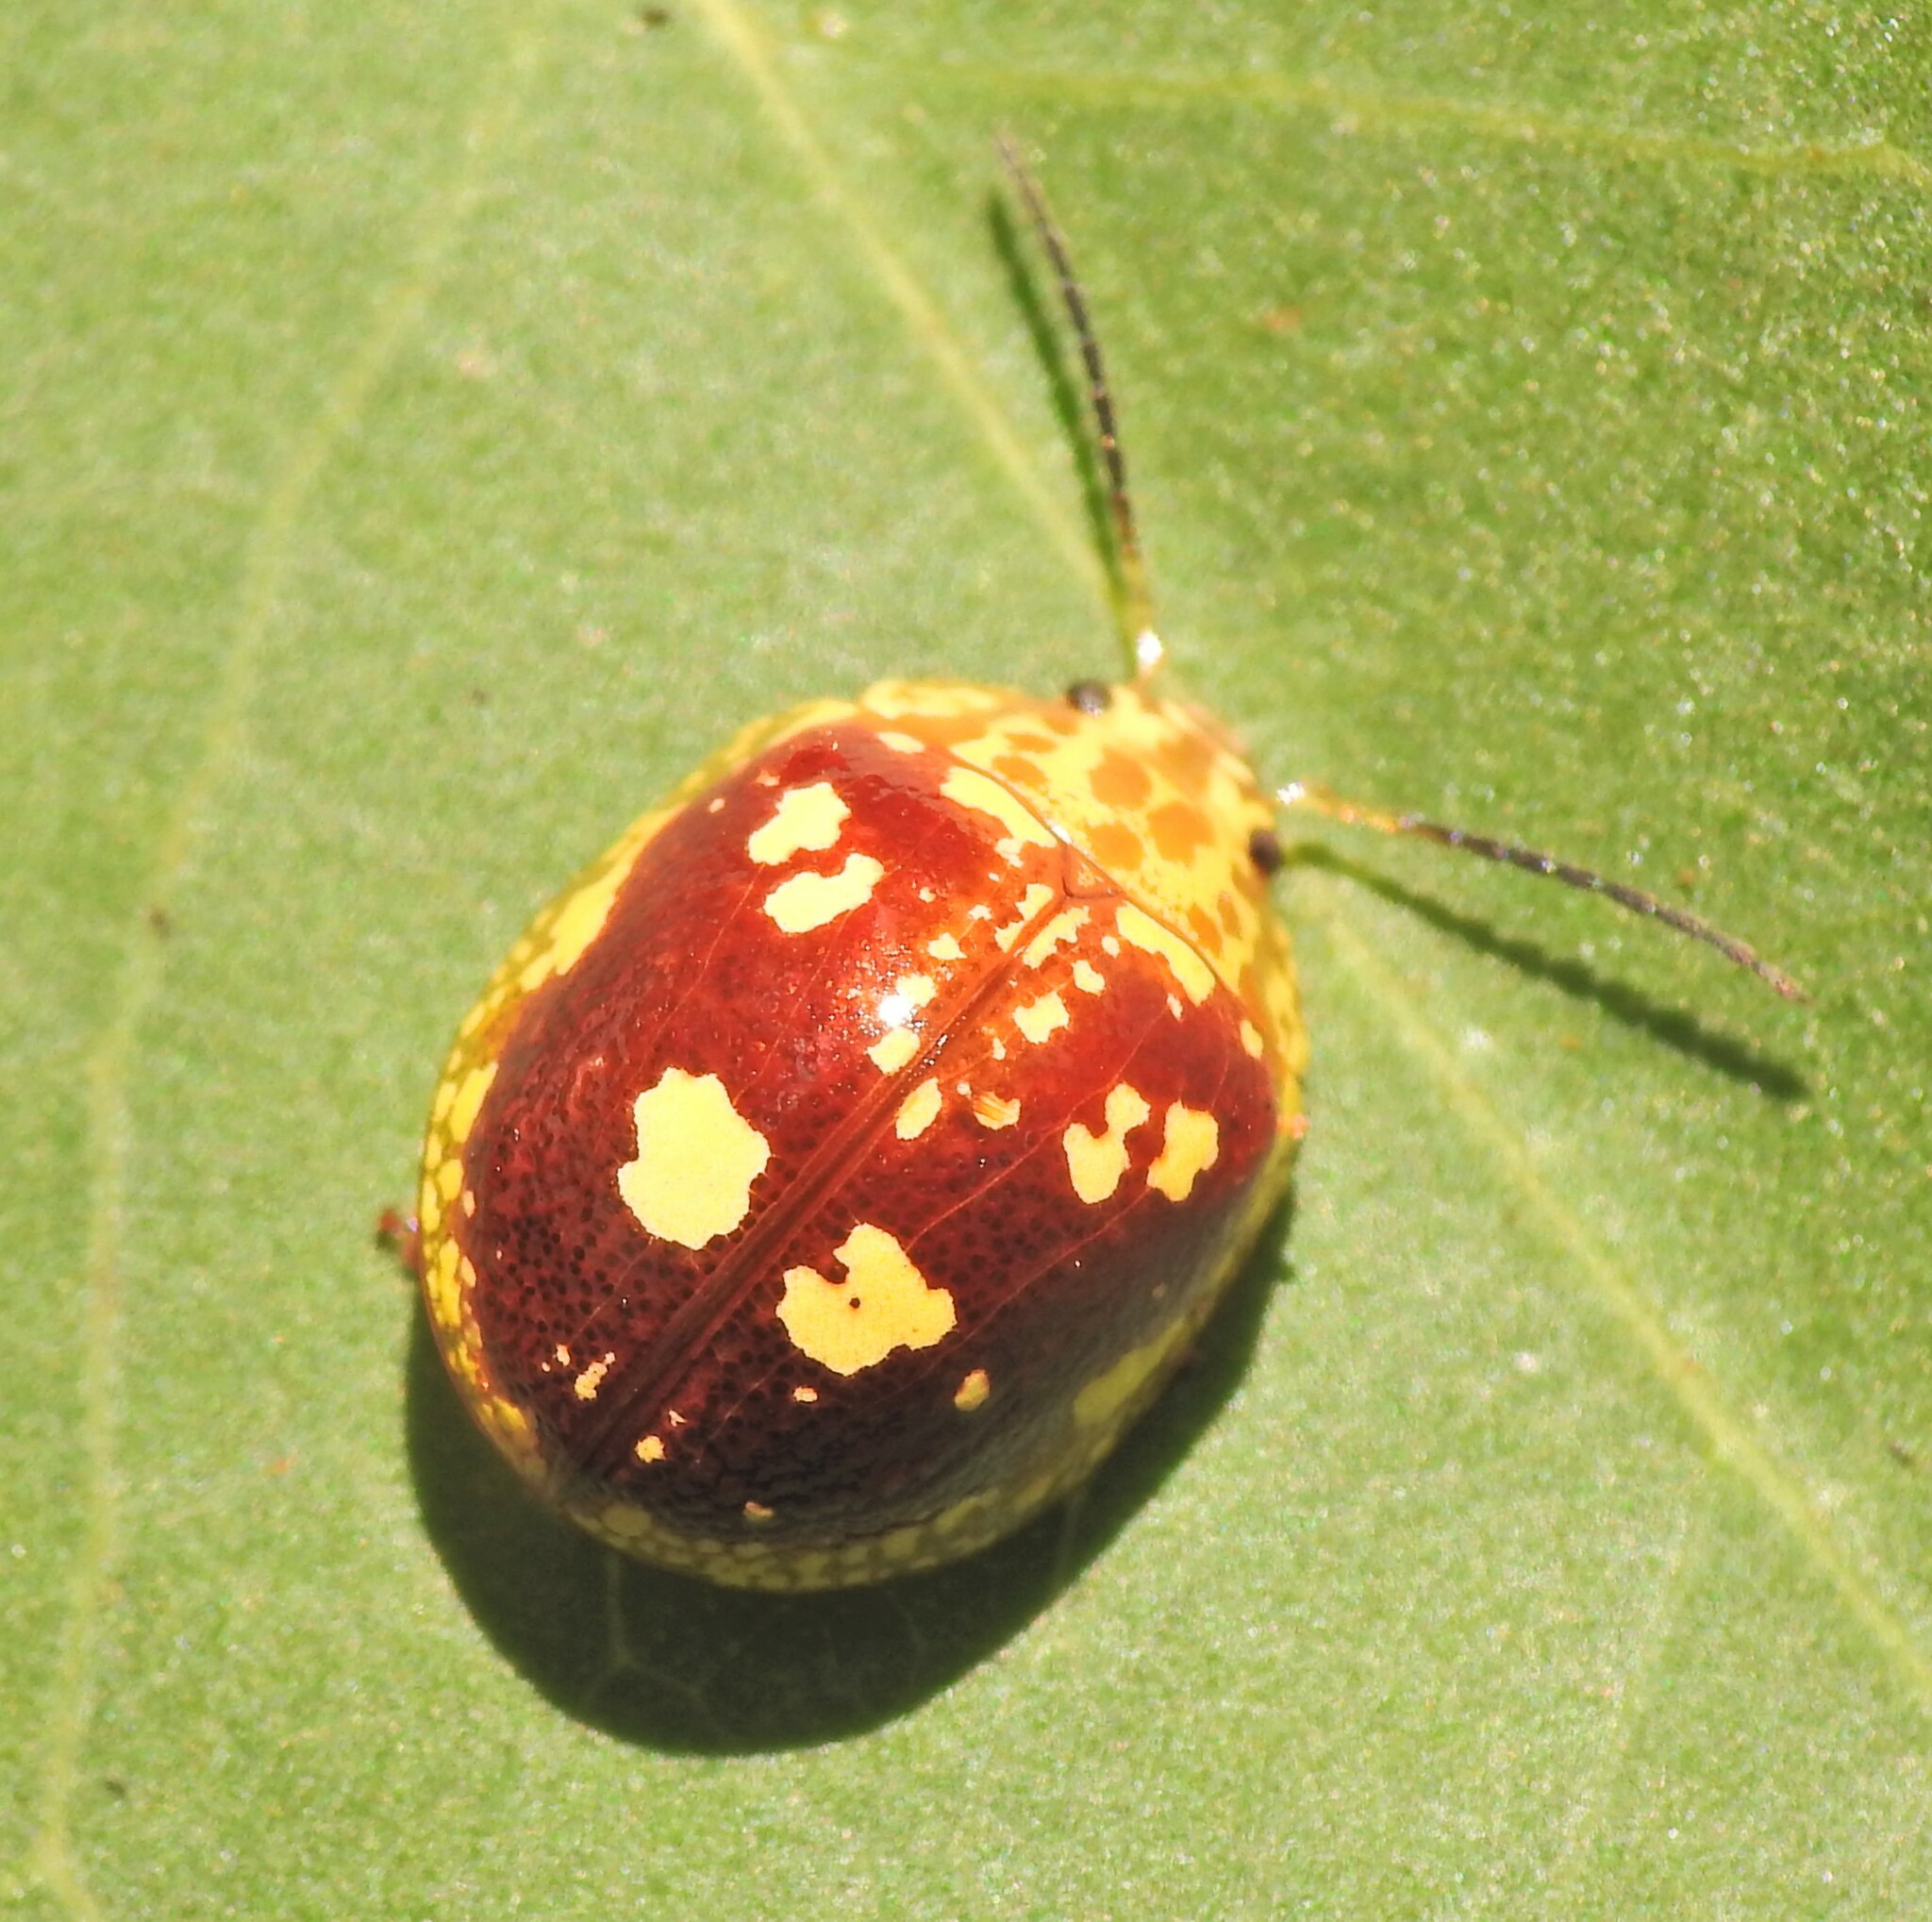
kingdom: Animalia
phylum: Arthropoda
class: Insecta
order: Coleoptera
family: Chrysomelidae
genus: Paropsis
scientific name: Paropsis maculata
